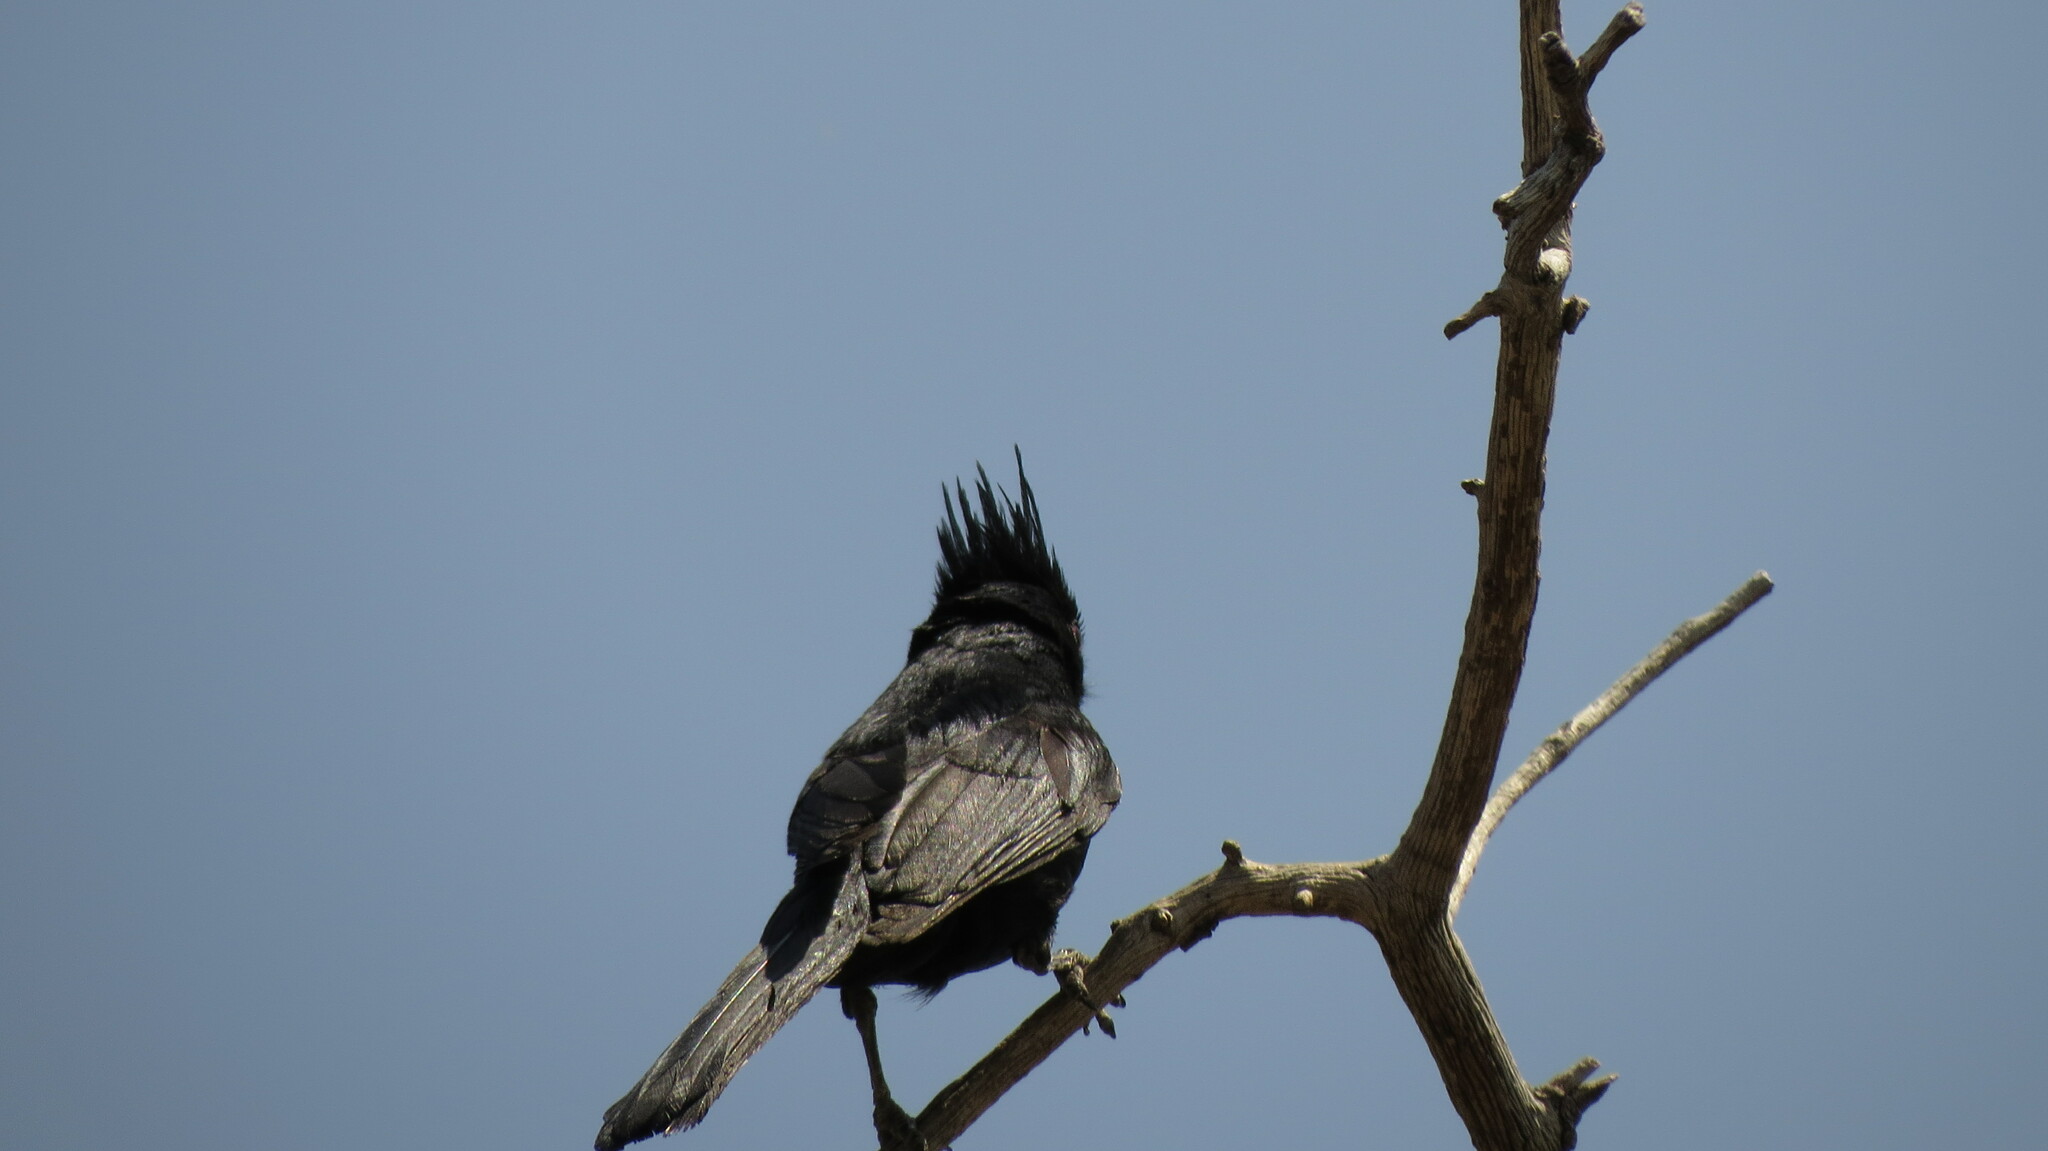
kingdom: Animalia
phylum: Chordata
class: Aves
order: Passeriformes
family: Ptilogonatidae
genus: Phainopepla
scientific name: Phainopepla nitens
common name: Phainopepla
